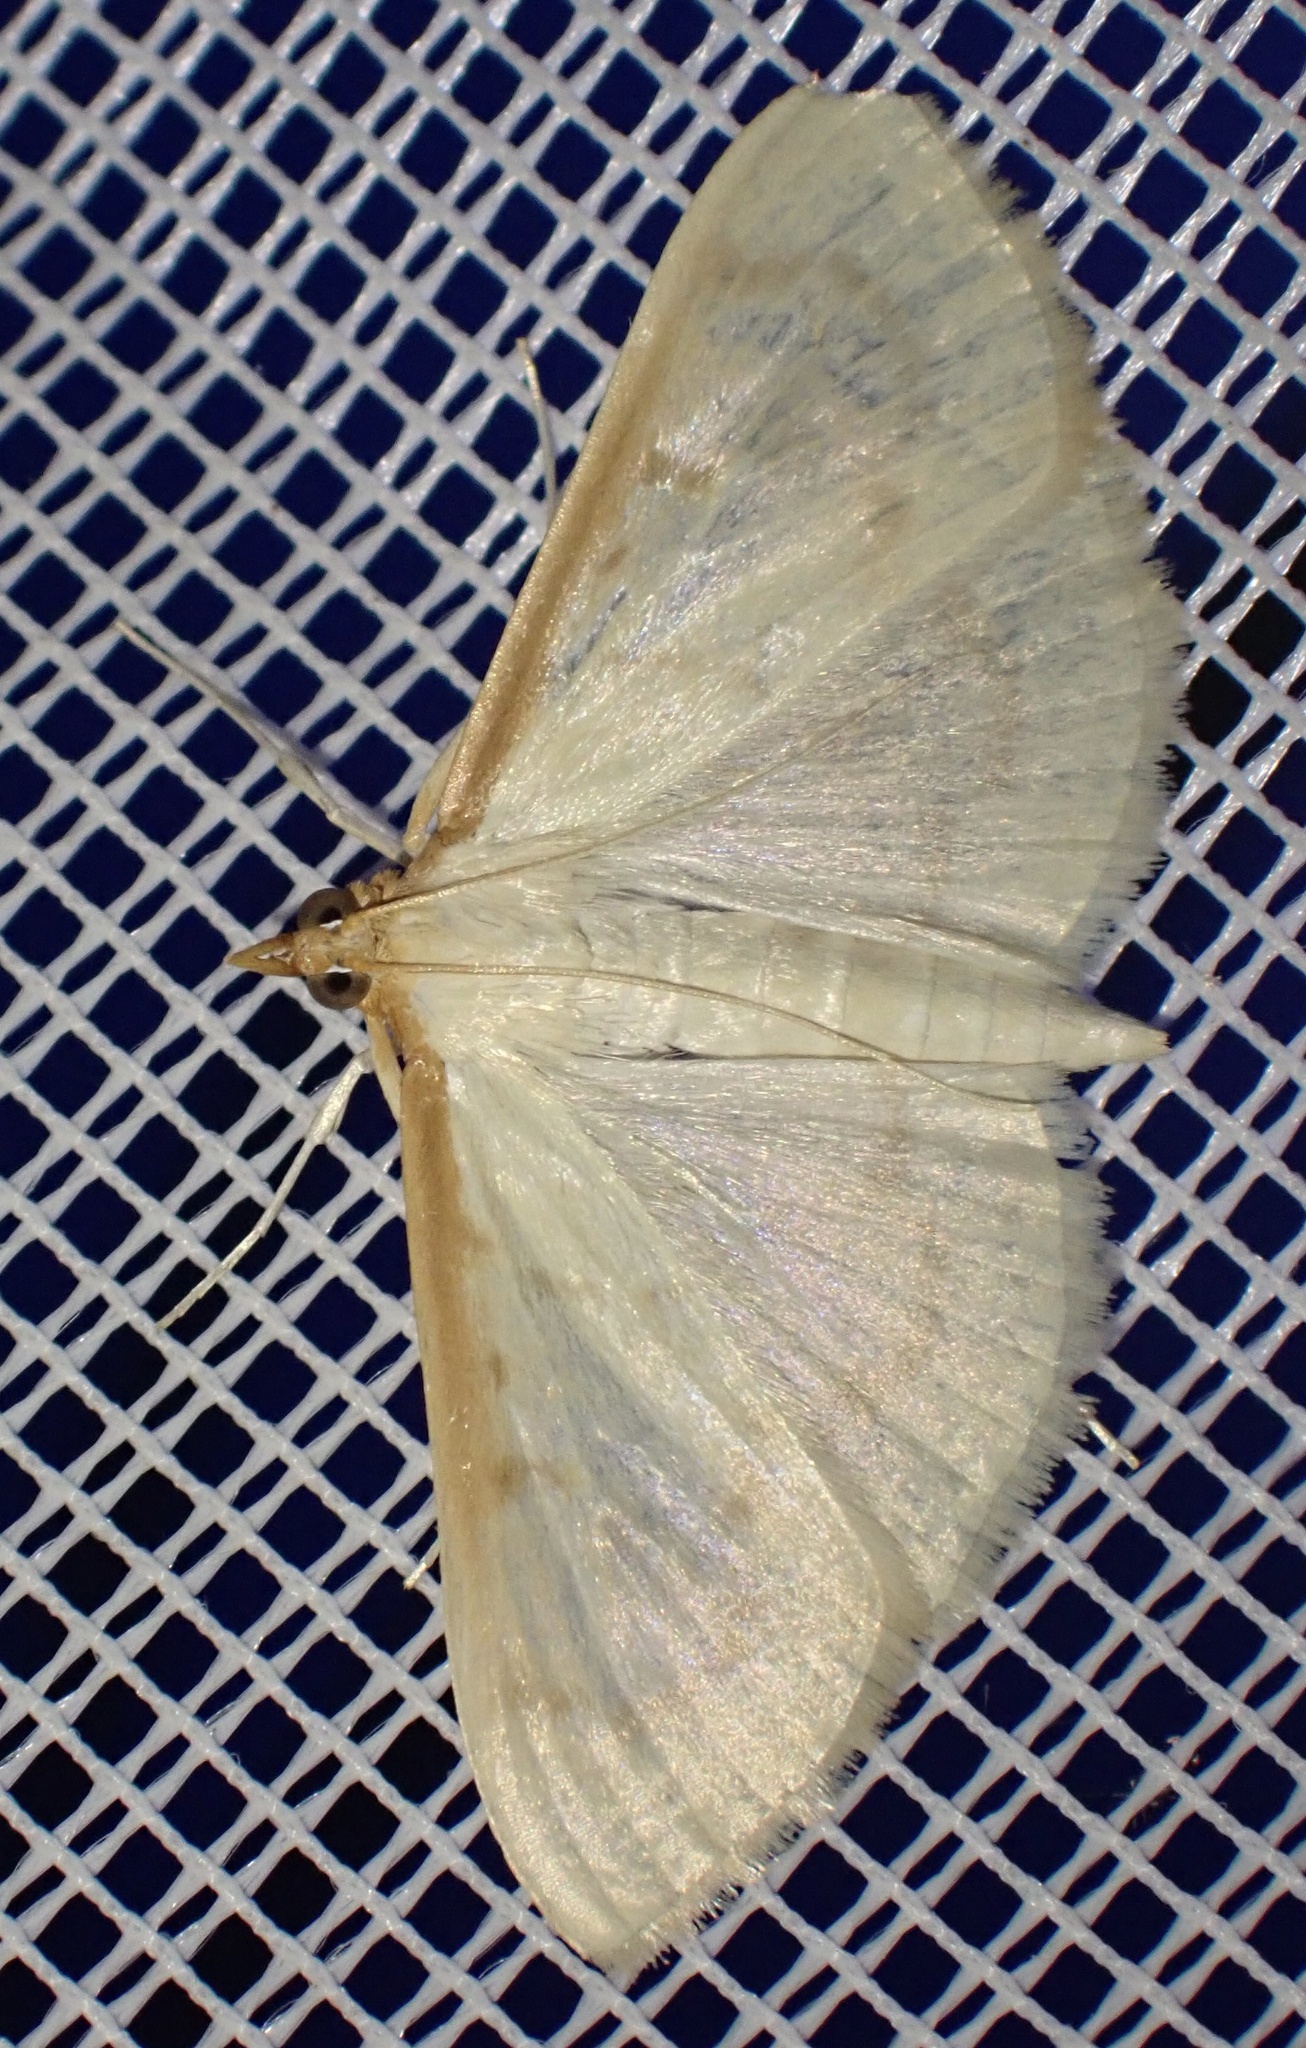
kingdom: Animalia
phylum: Arthropoda
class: Insecta
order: Lepidoptera
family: Crambidae
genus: Pyrausta
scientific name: Pyrausta testalis
